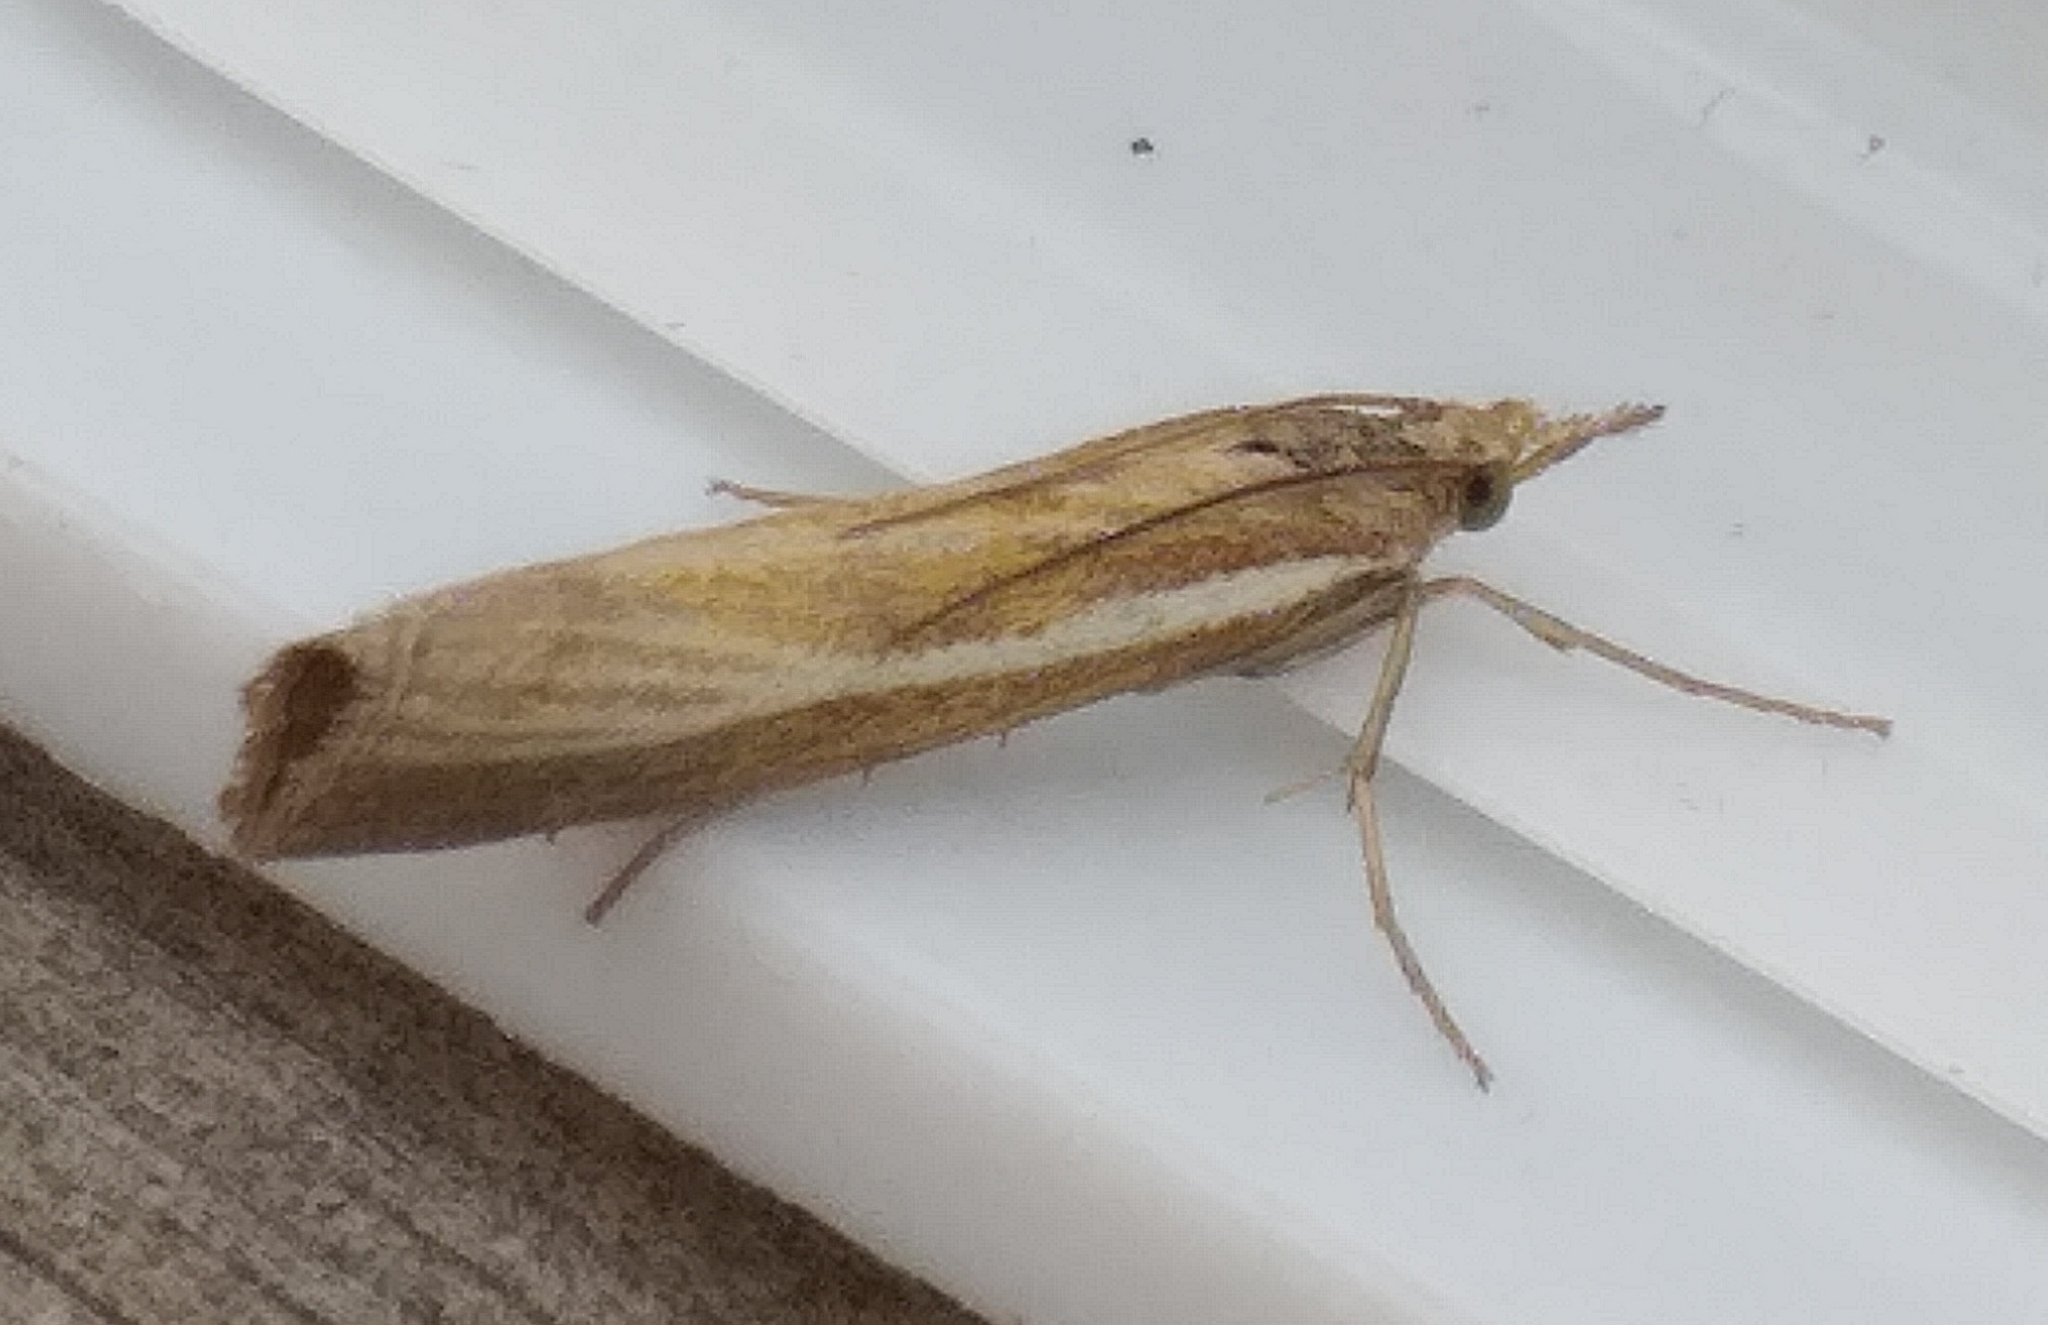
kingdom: Animalia
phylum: Arthropoda
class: Insecta
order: Lepidoptera
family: Crambidae
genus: Agriphila
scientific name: Agriphila tristellus
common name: Common grass-veneer
